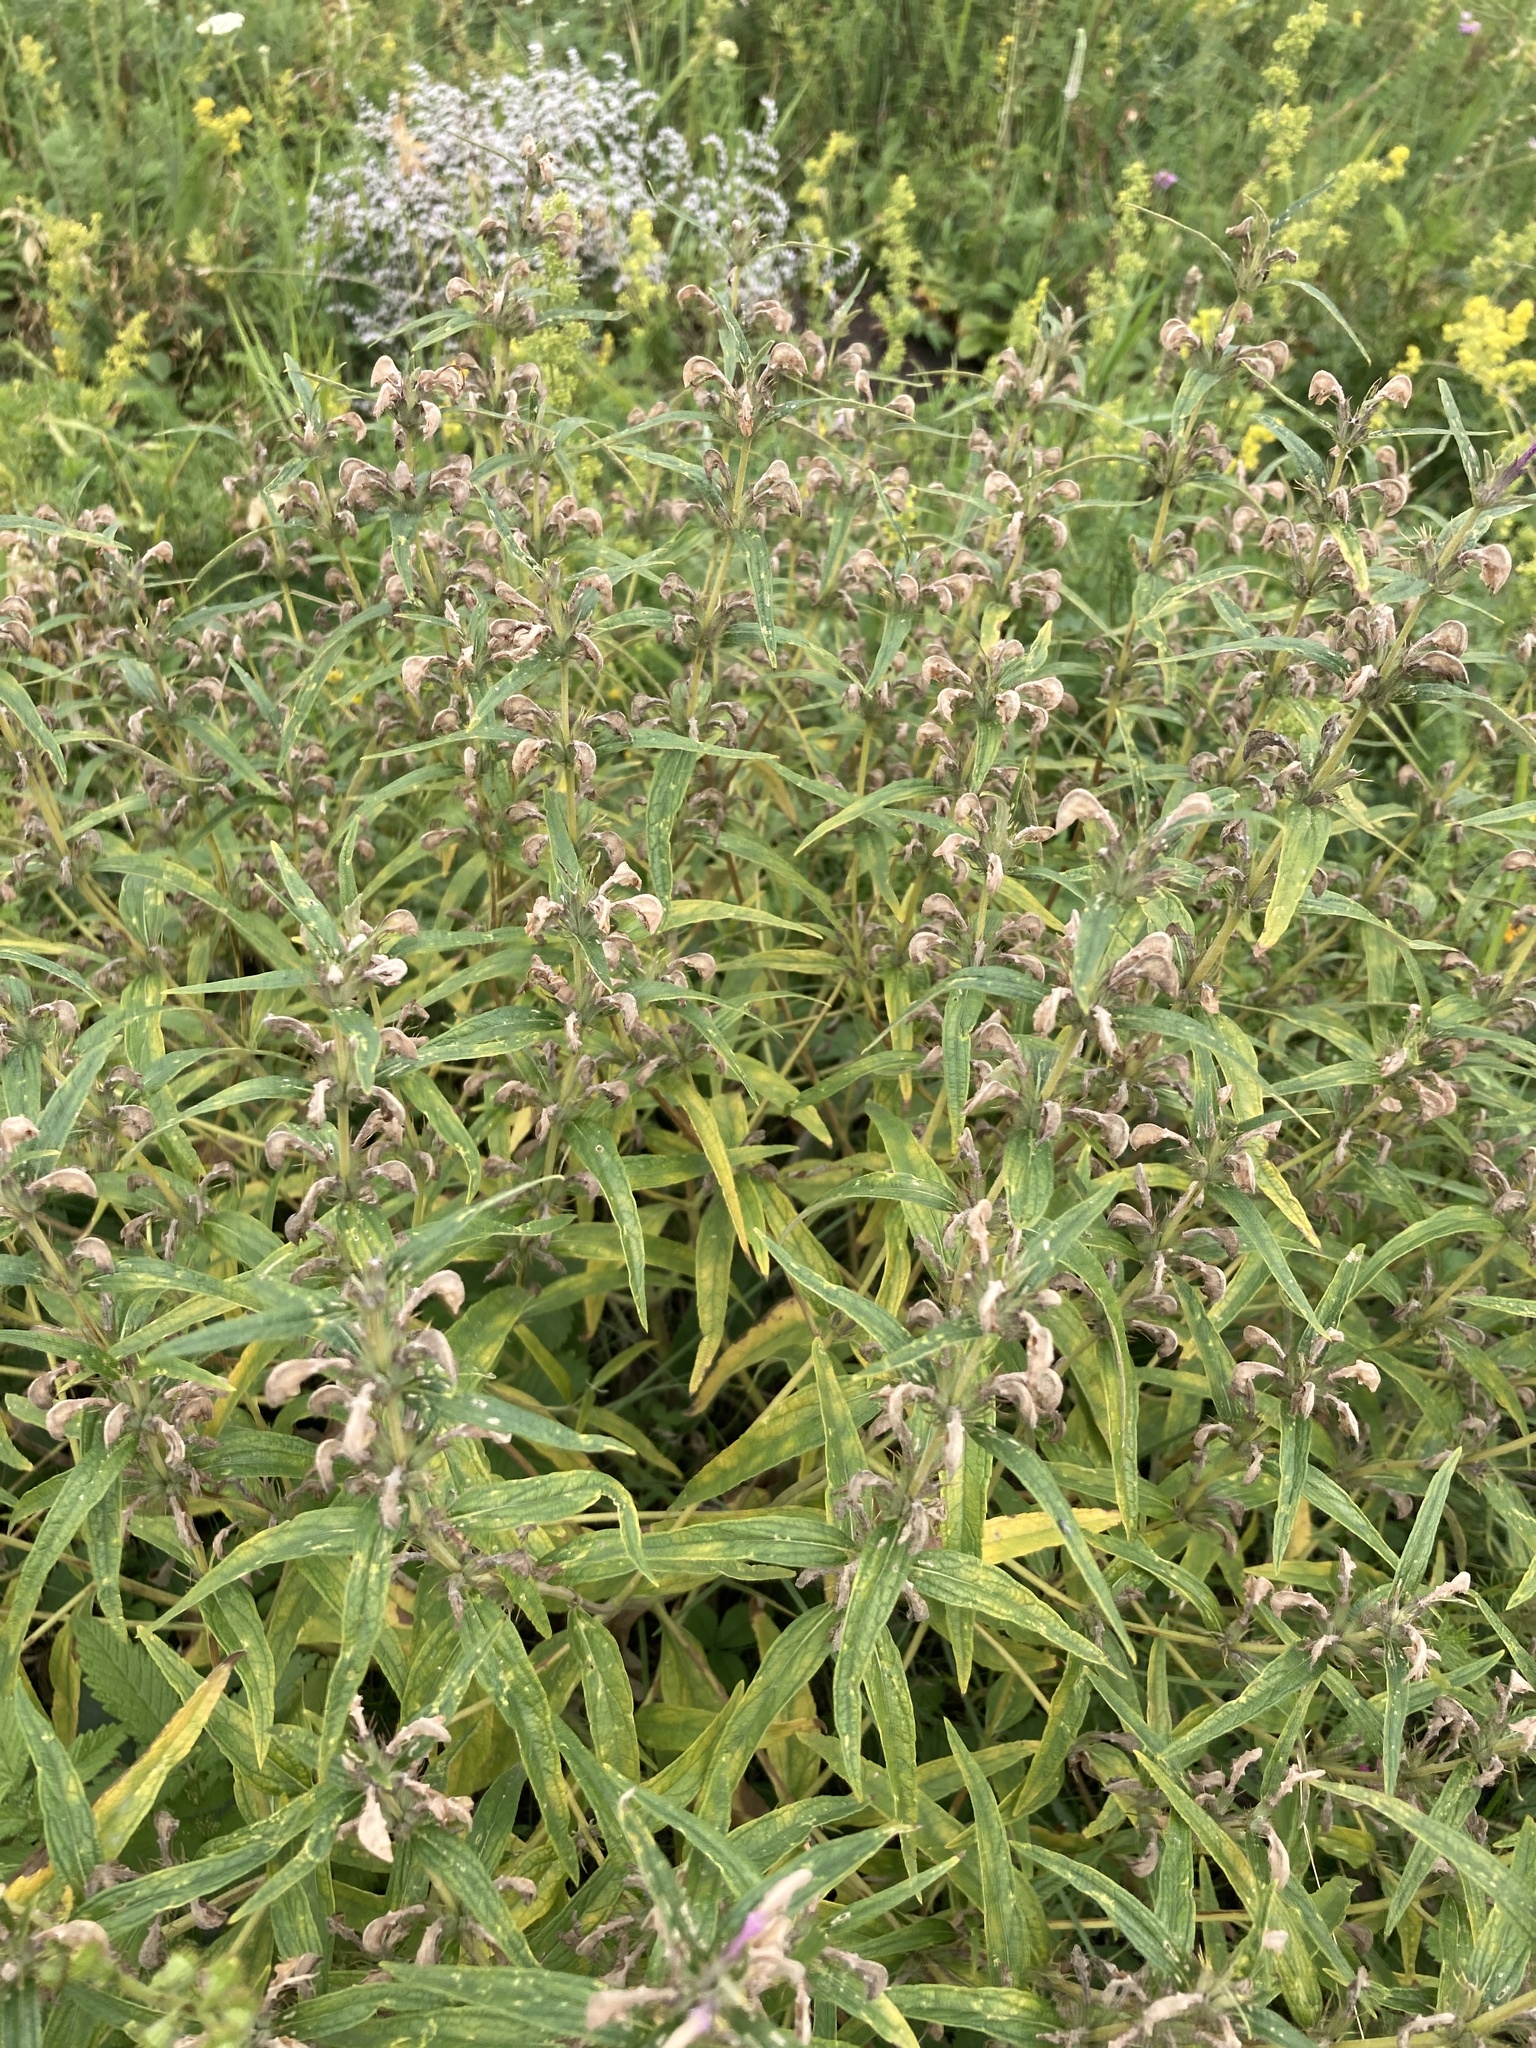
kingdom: Plantae
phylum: Tracheophyta
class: Magnoliopsida
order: Lamiales
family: Lamiaceae
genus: Phlomis
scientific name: Phlomis herba-venti
